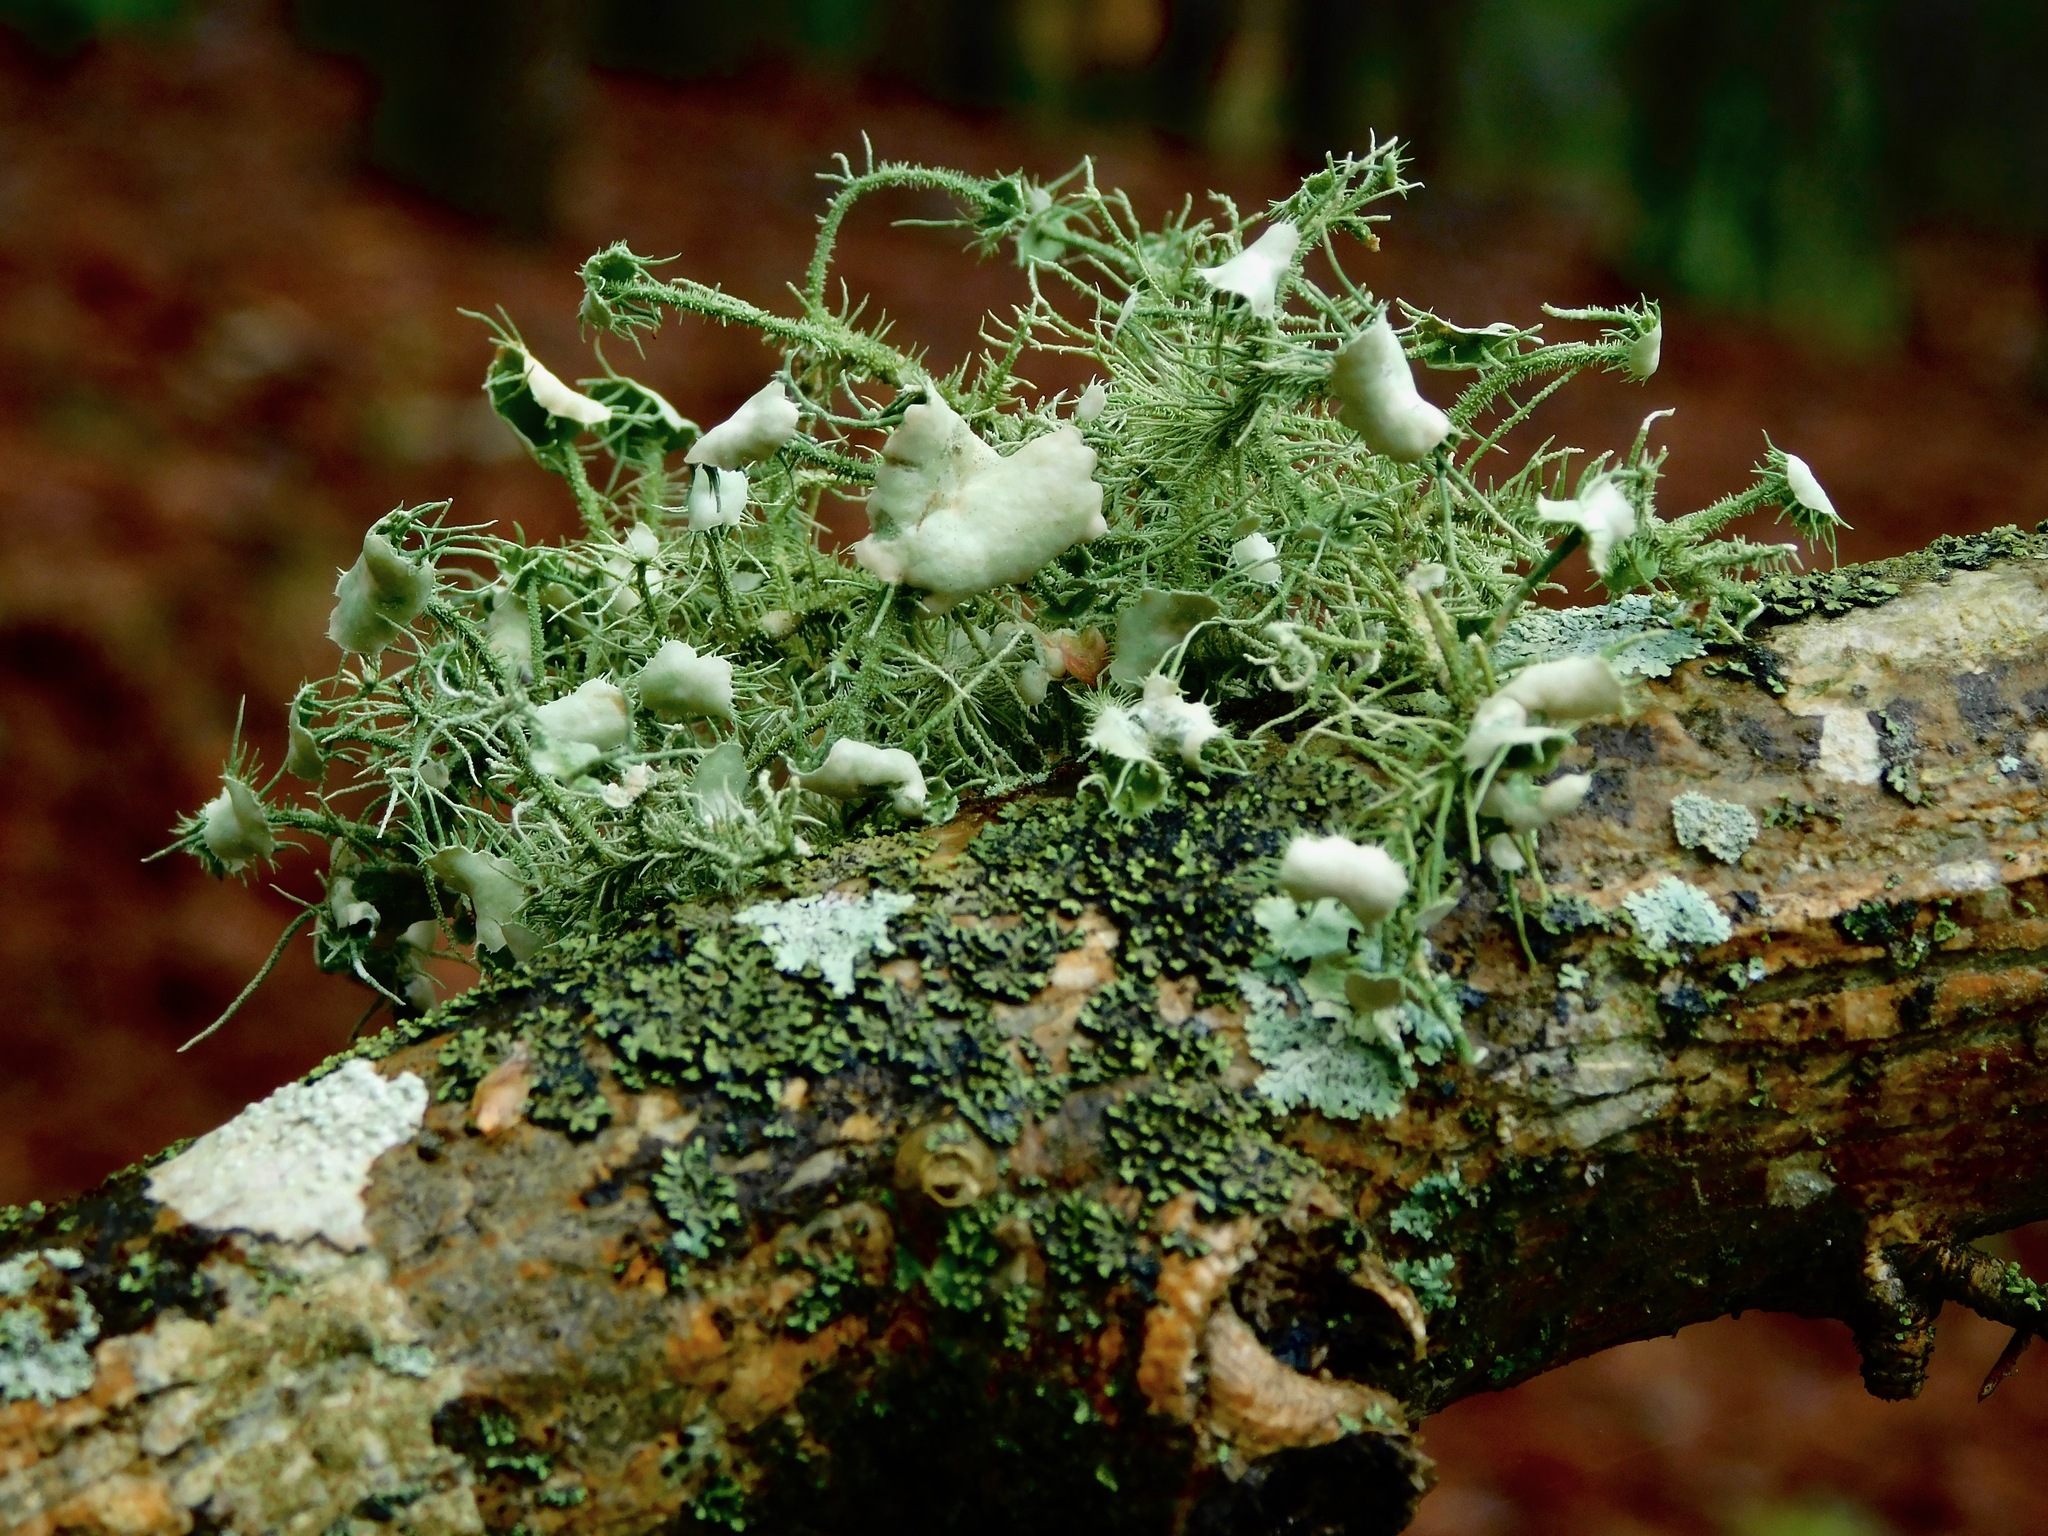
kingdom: Fungi
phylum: Ascomycota
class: Lecanoromycetes
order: Lecanorales
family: Parmeliaceae
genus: Usnea
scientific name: Usnea strigosa
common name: Bushy beard lichen
